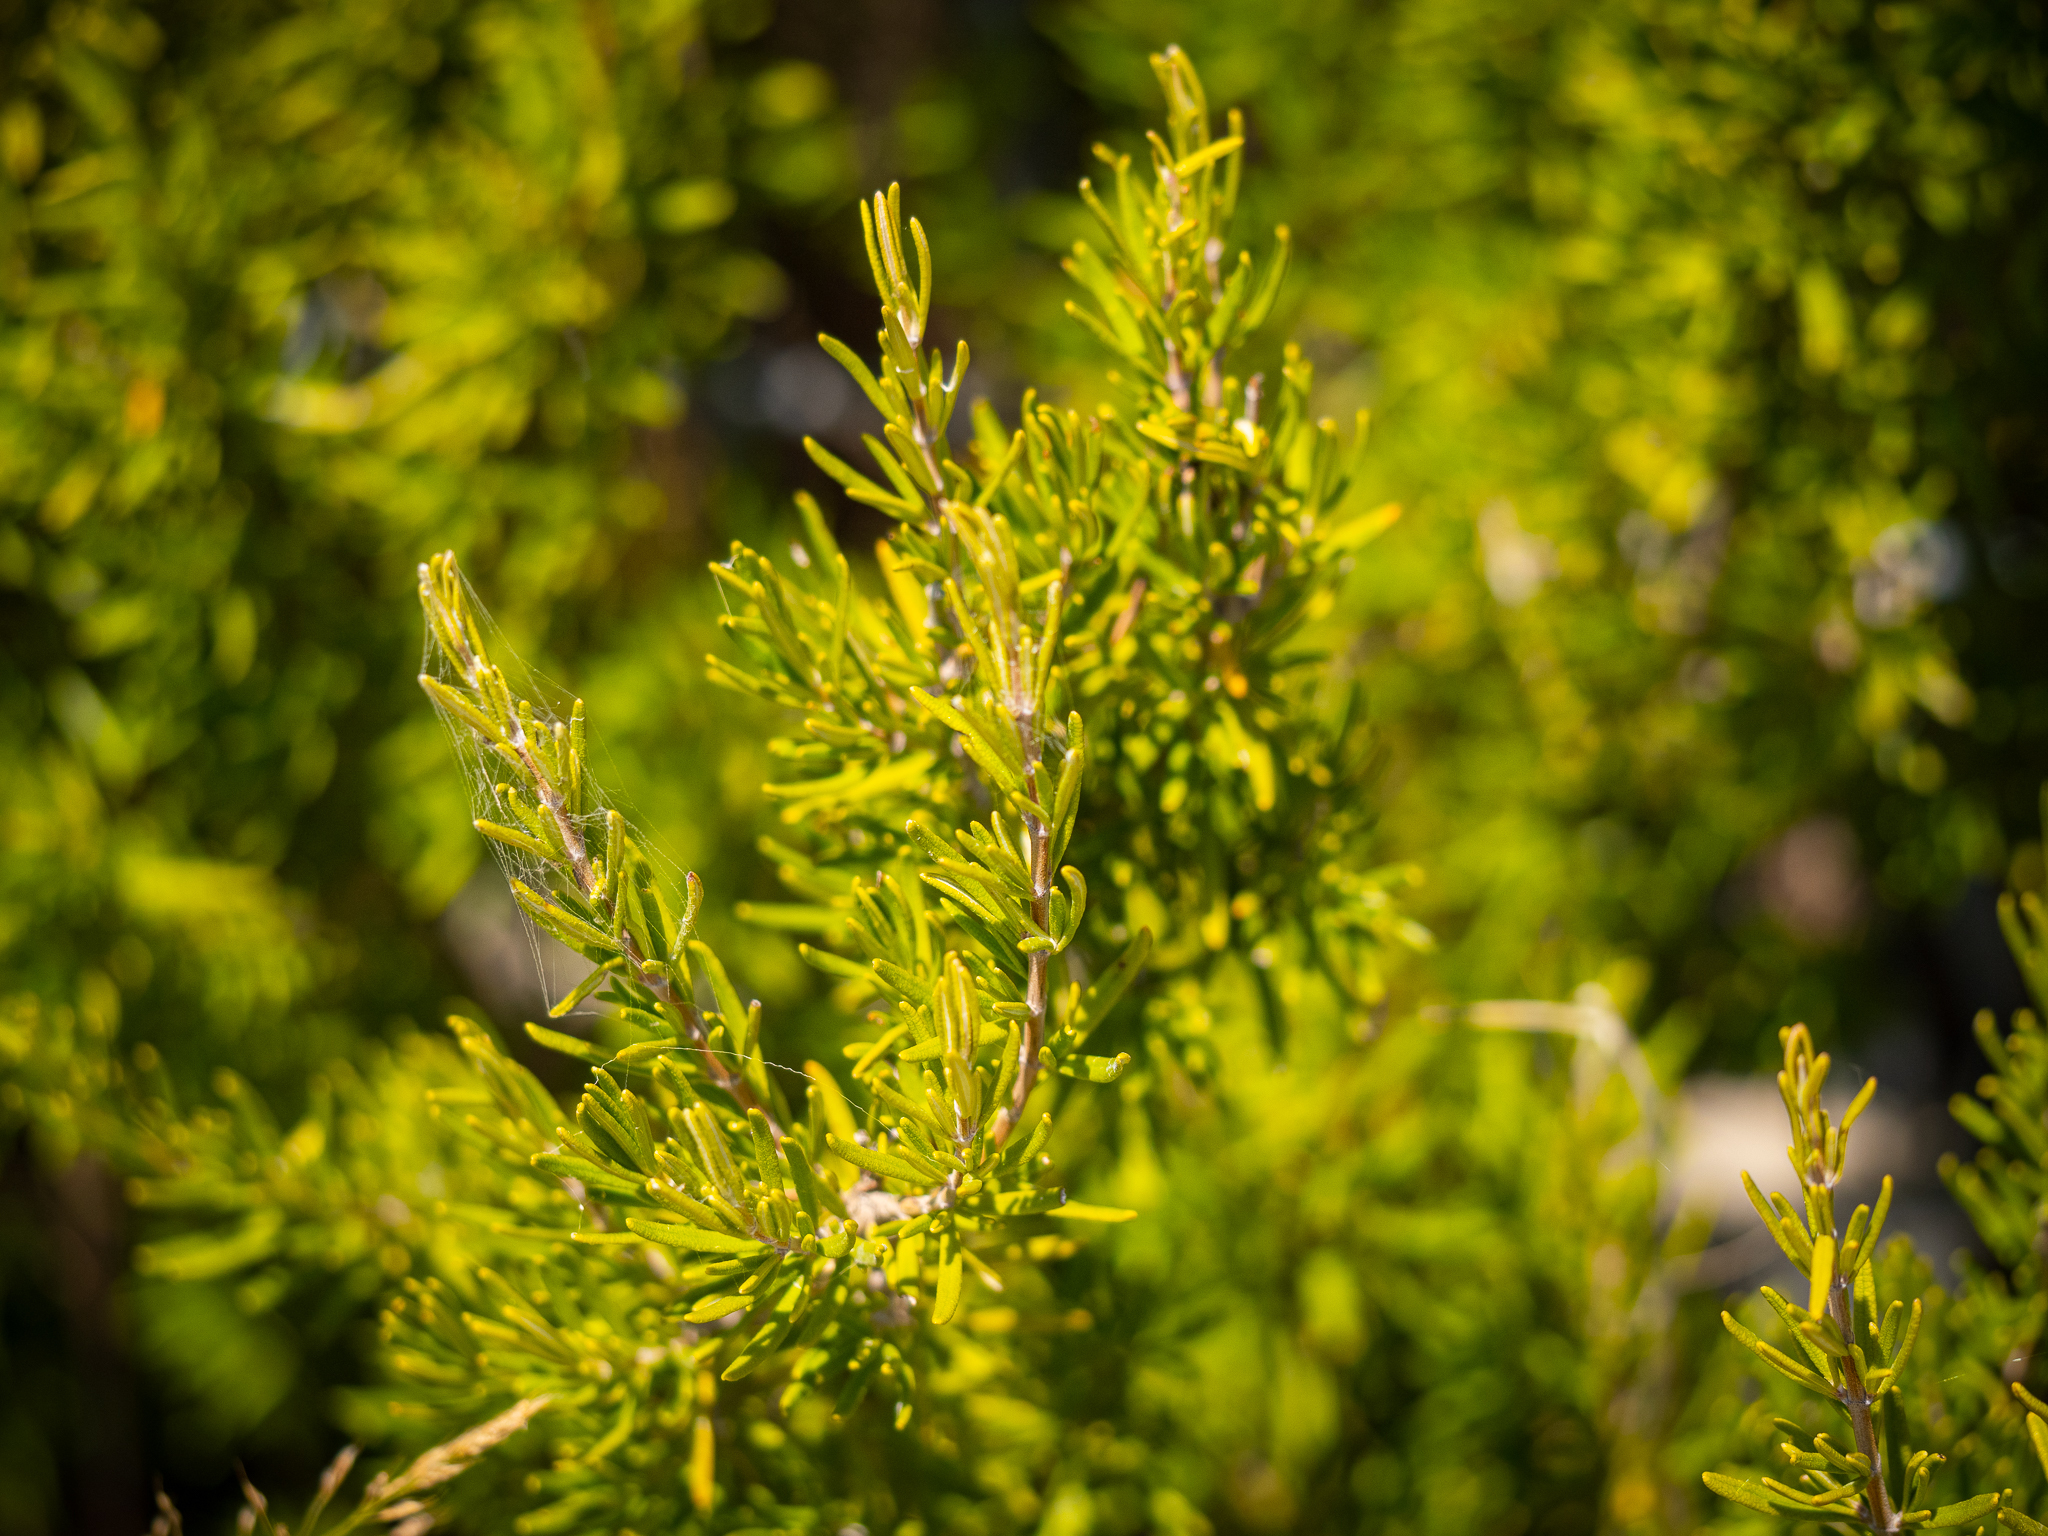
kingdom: Plantae
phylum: Tracheophyta
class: Magnoliopsida
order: Lamiales
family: Lamiaceae
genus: Salvia
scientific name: Salvia rosmarinus
